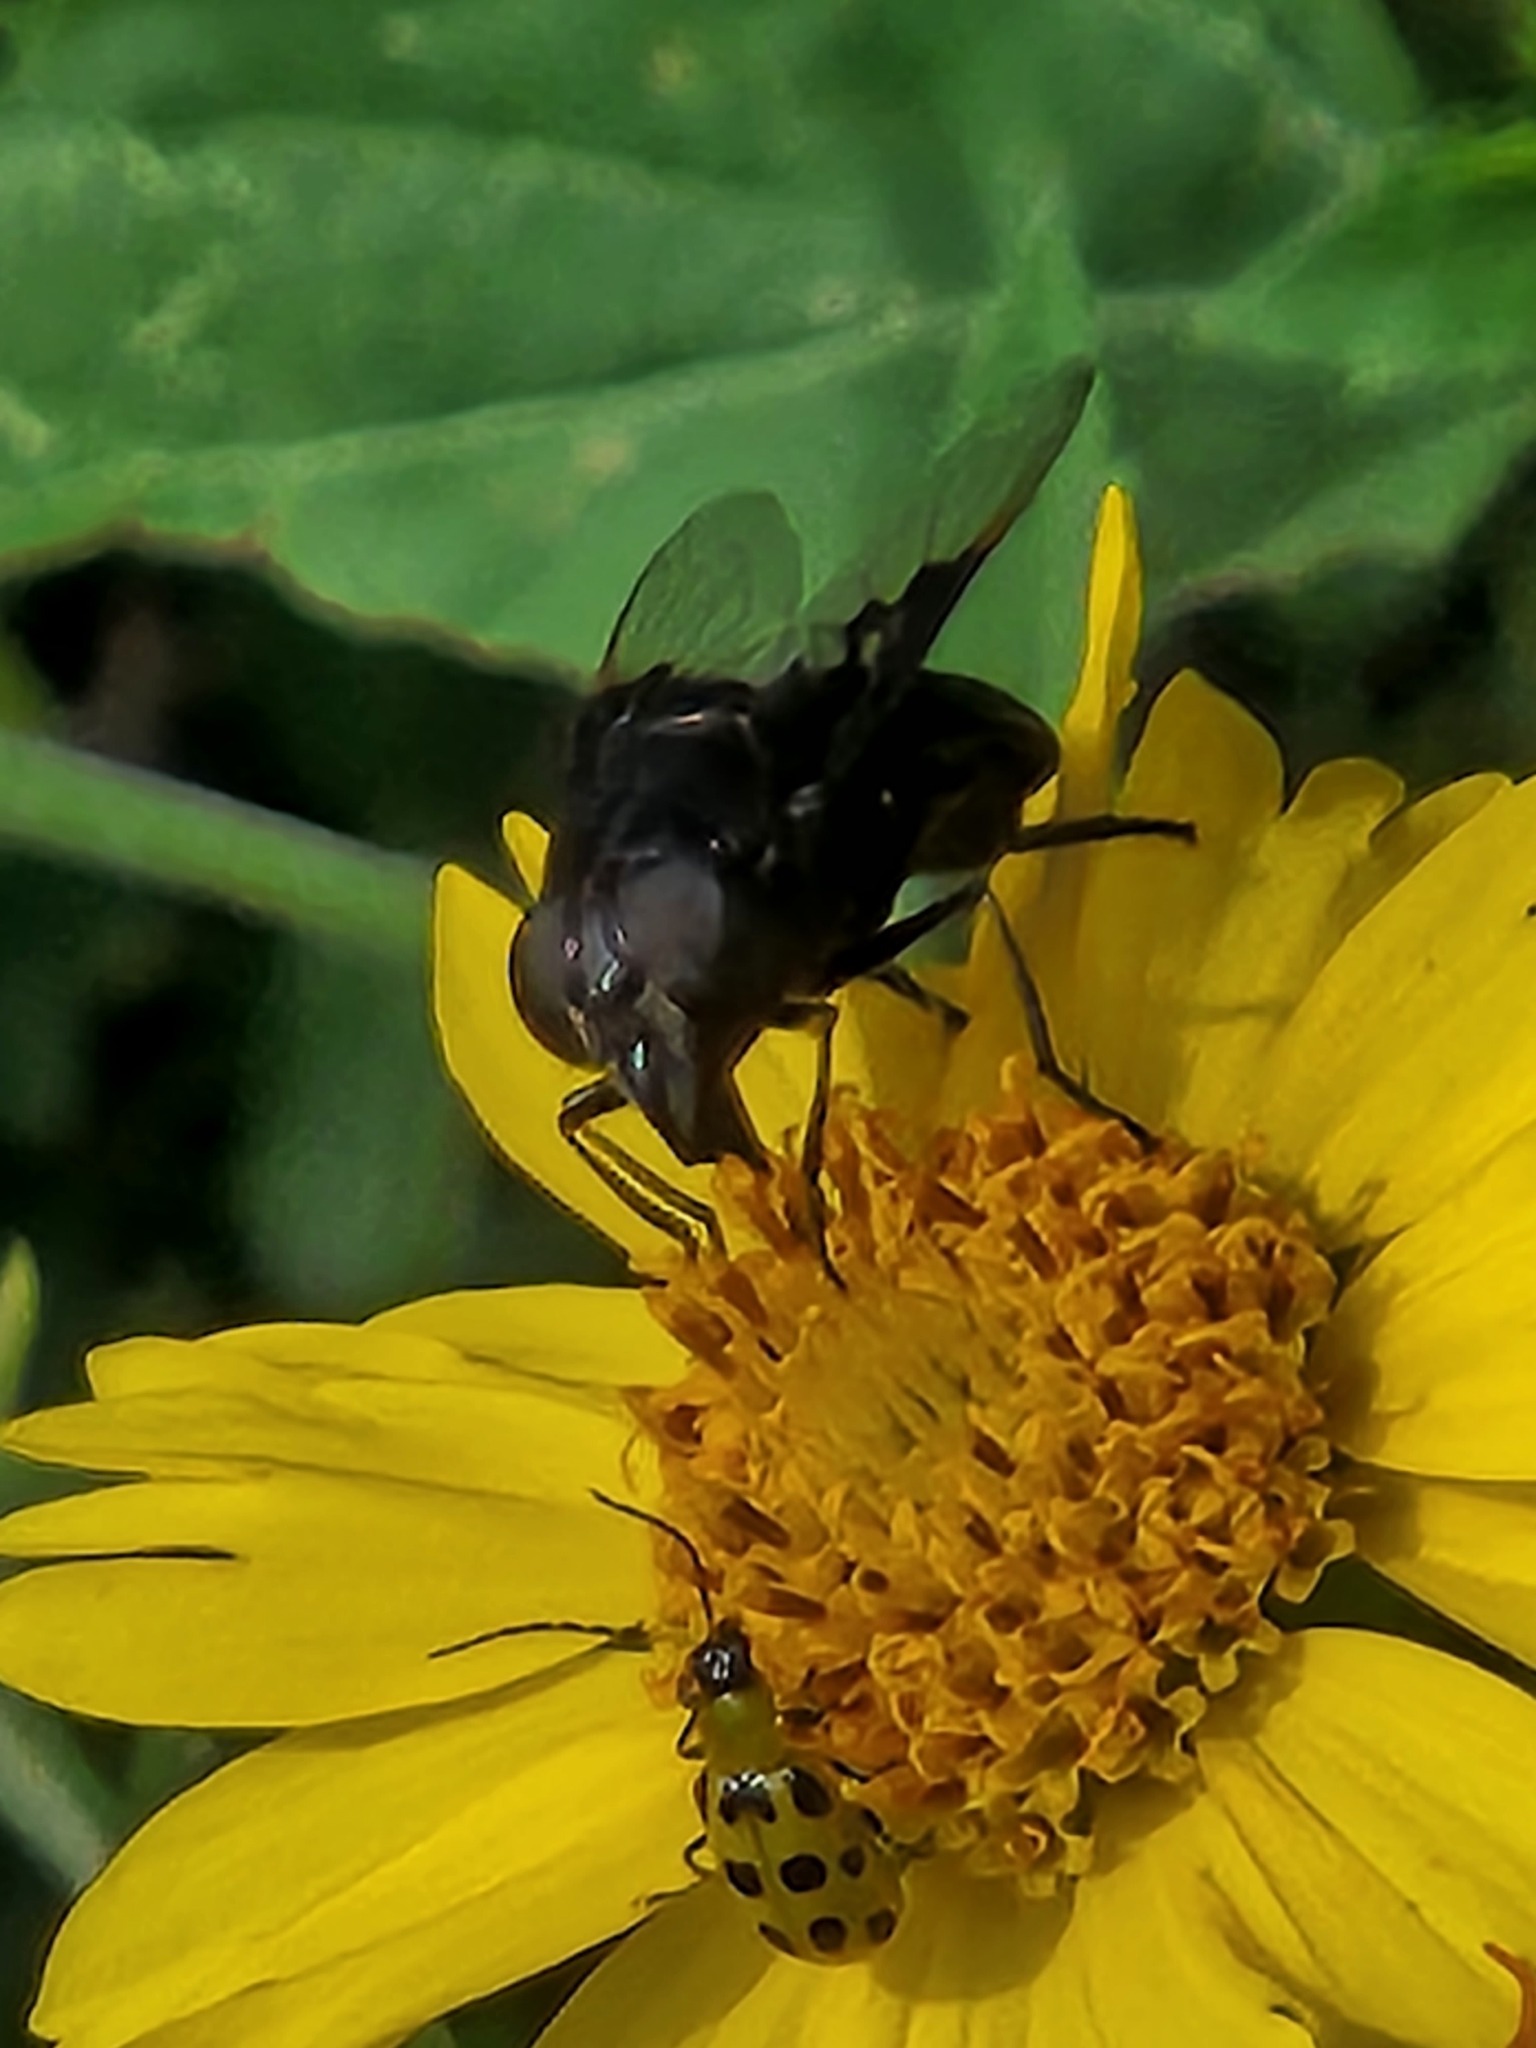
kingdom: Animalia
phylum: Arthropoda
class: Insecta
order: Diptera
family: Syrphidae
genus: Copestylum
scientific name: Copestylum
